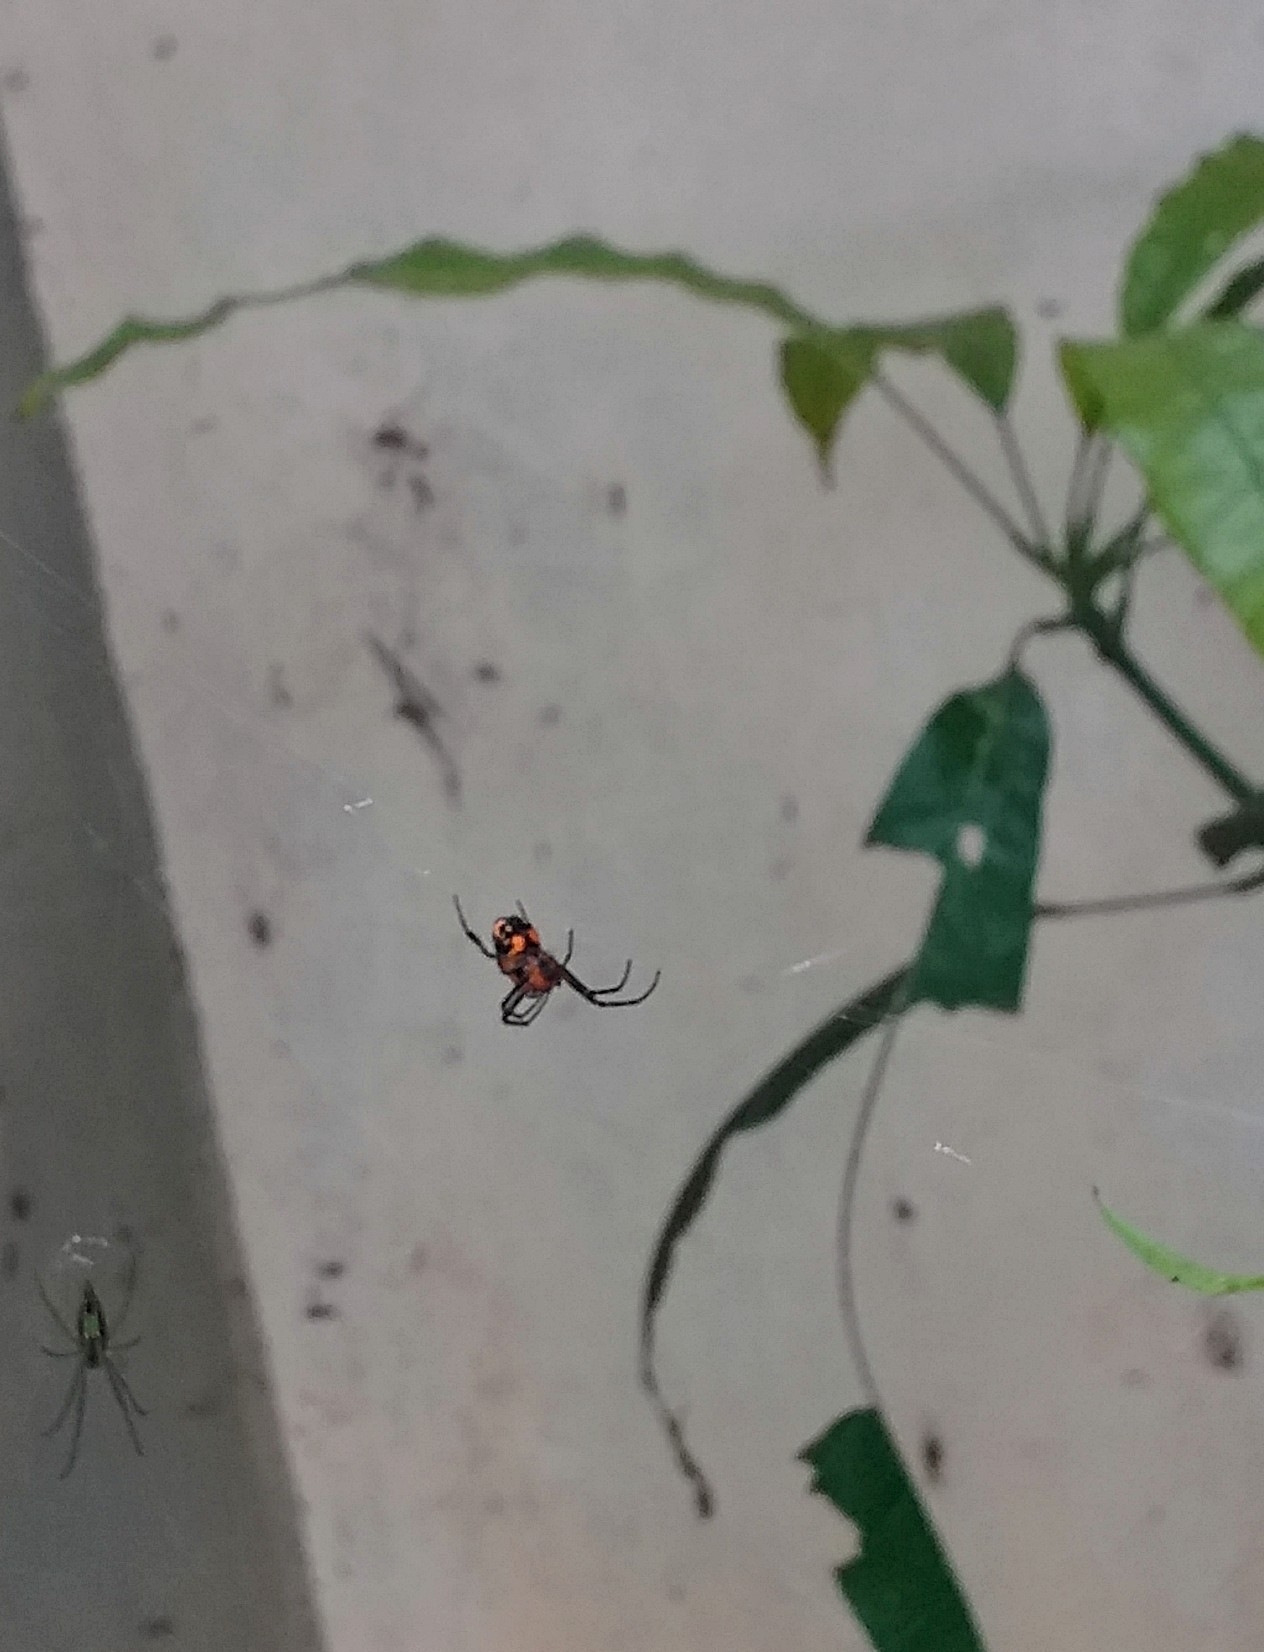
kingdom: Animalia
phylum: Arthropoda
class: Arachnida
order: Araneae
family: Tetragnathidae
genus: Leucauge
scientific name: Leucauge fastigata
